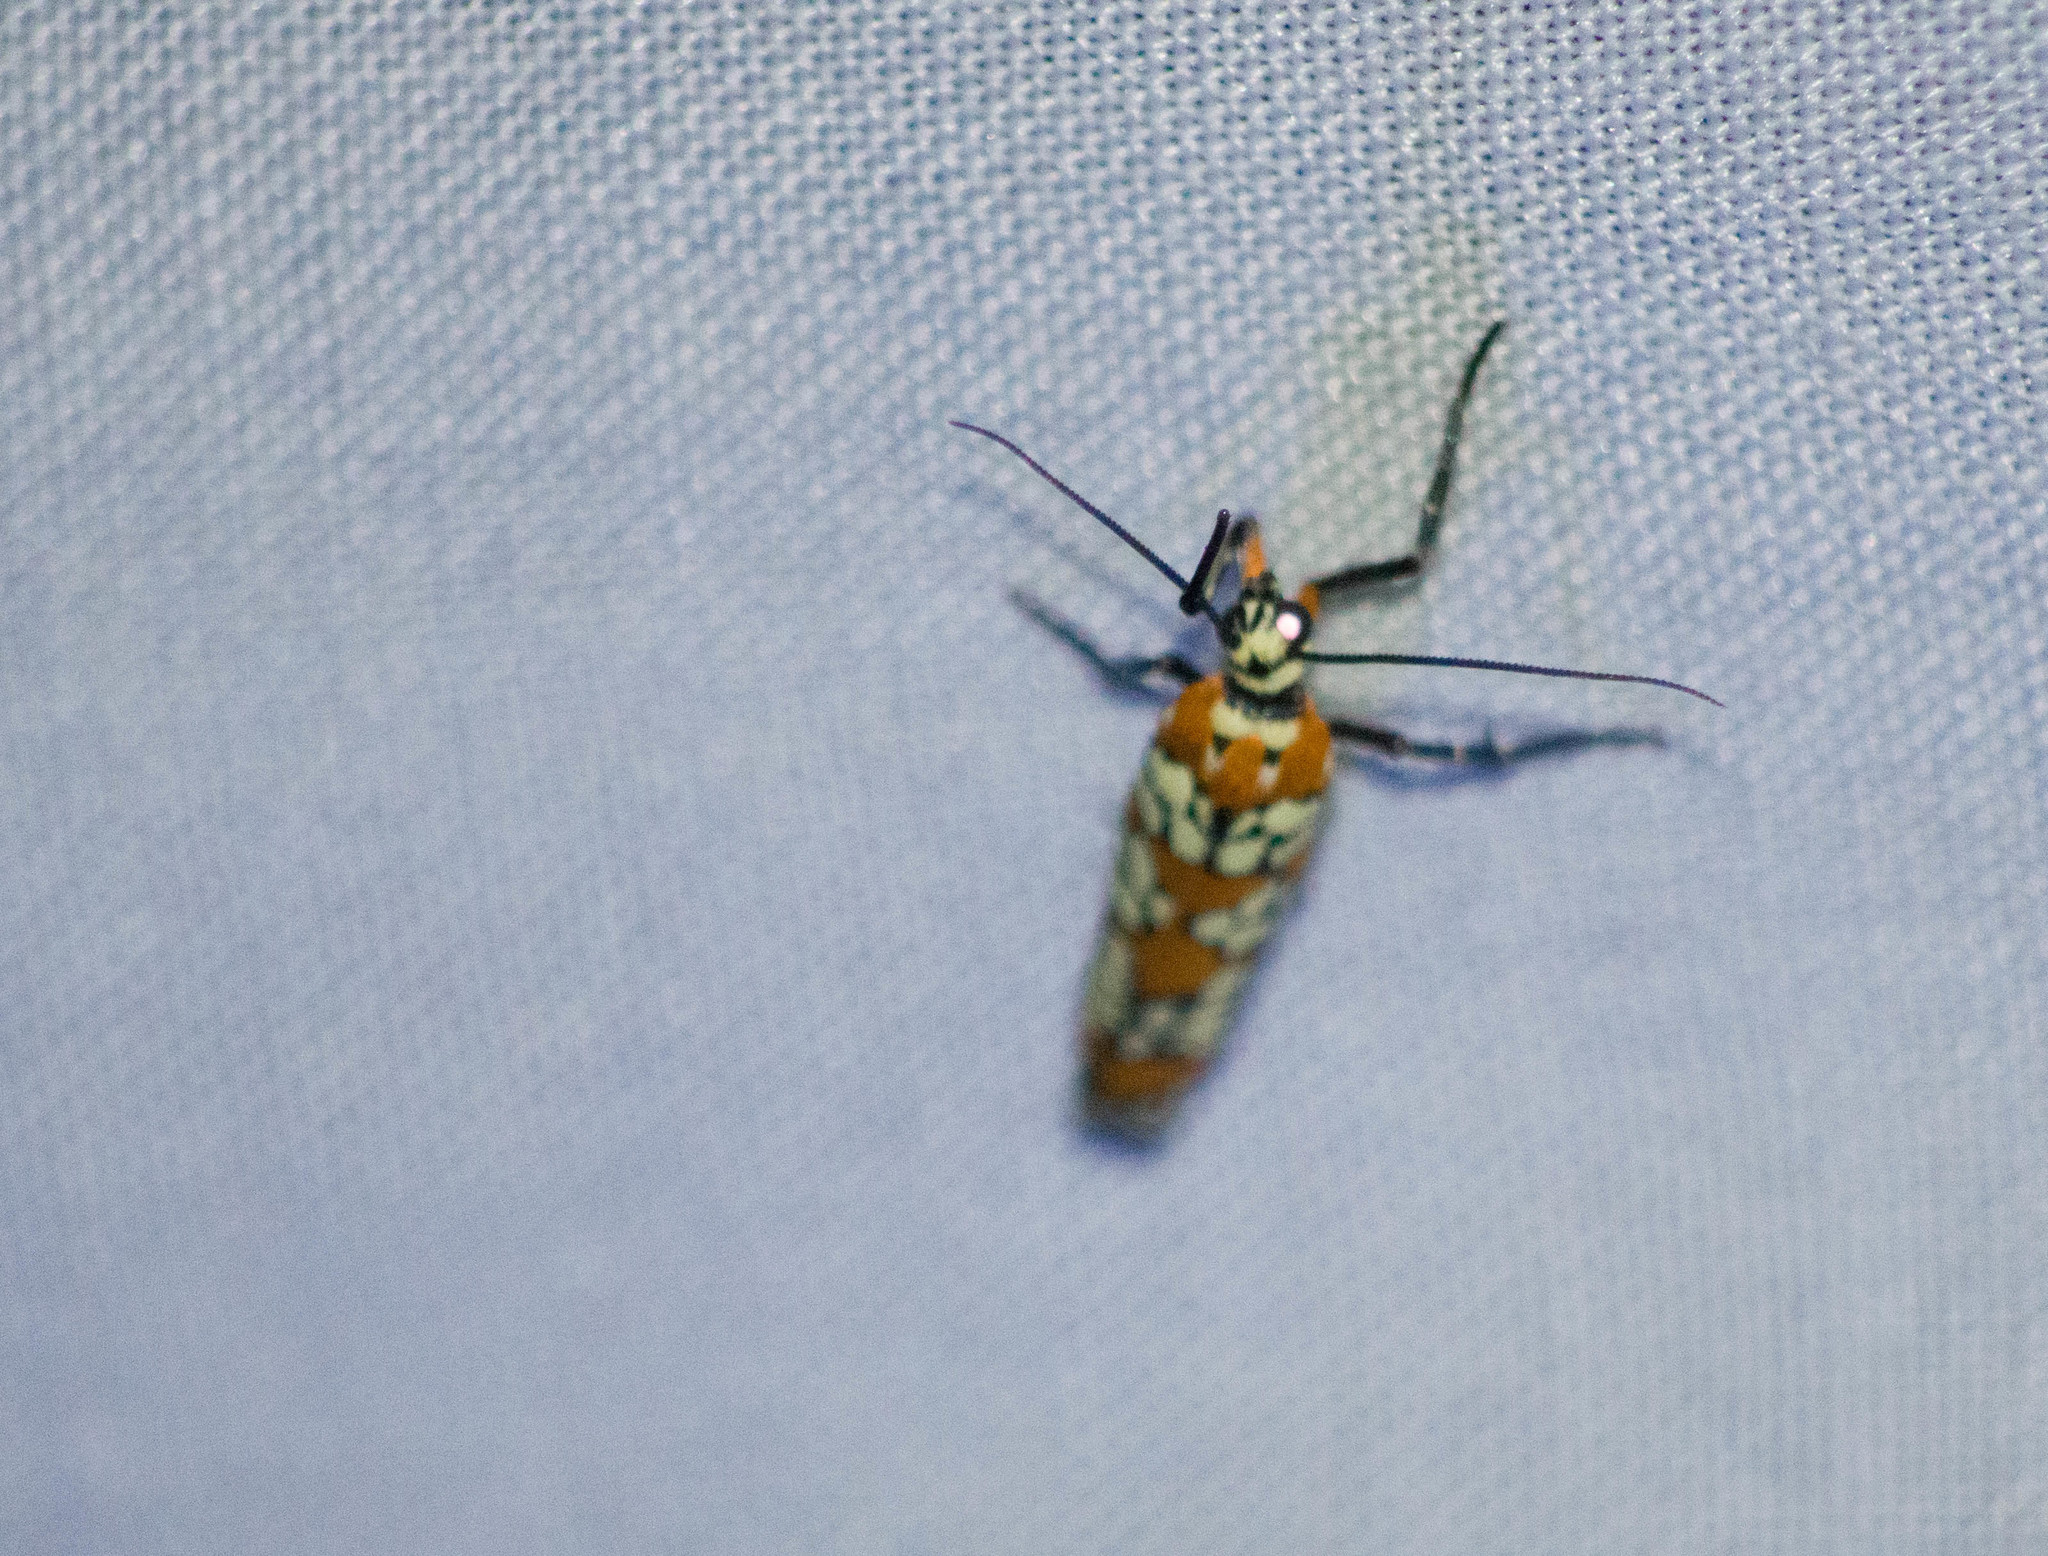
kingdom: Animalia
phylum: Arthropoda
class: Insecta
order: Lepidoptera
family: Attevidae
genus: Atteva
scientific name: Atteva punctella
